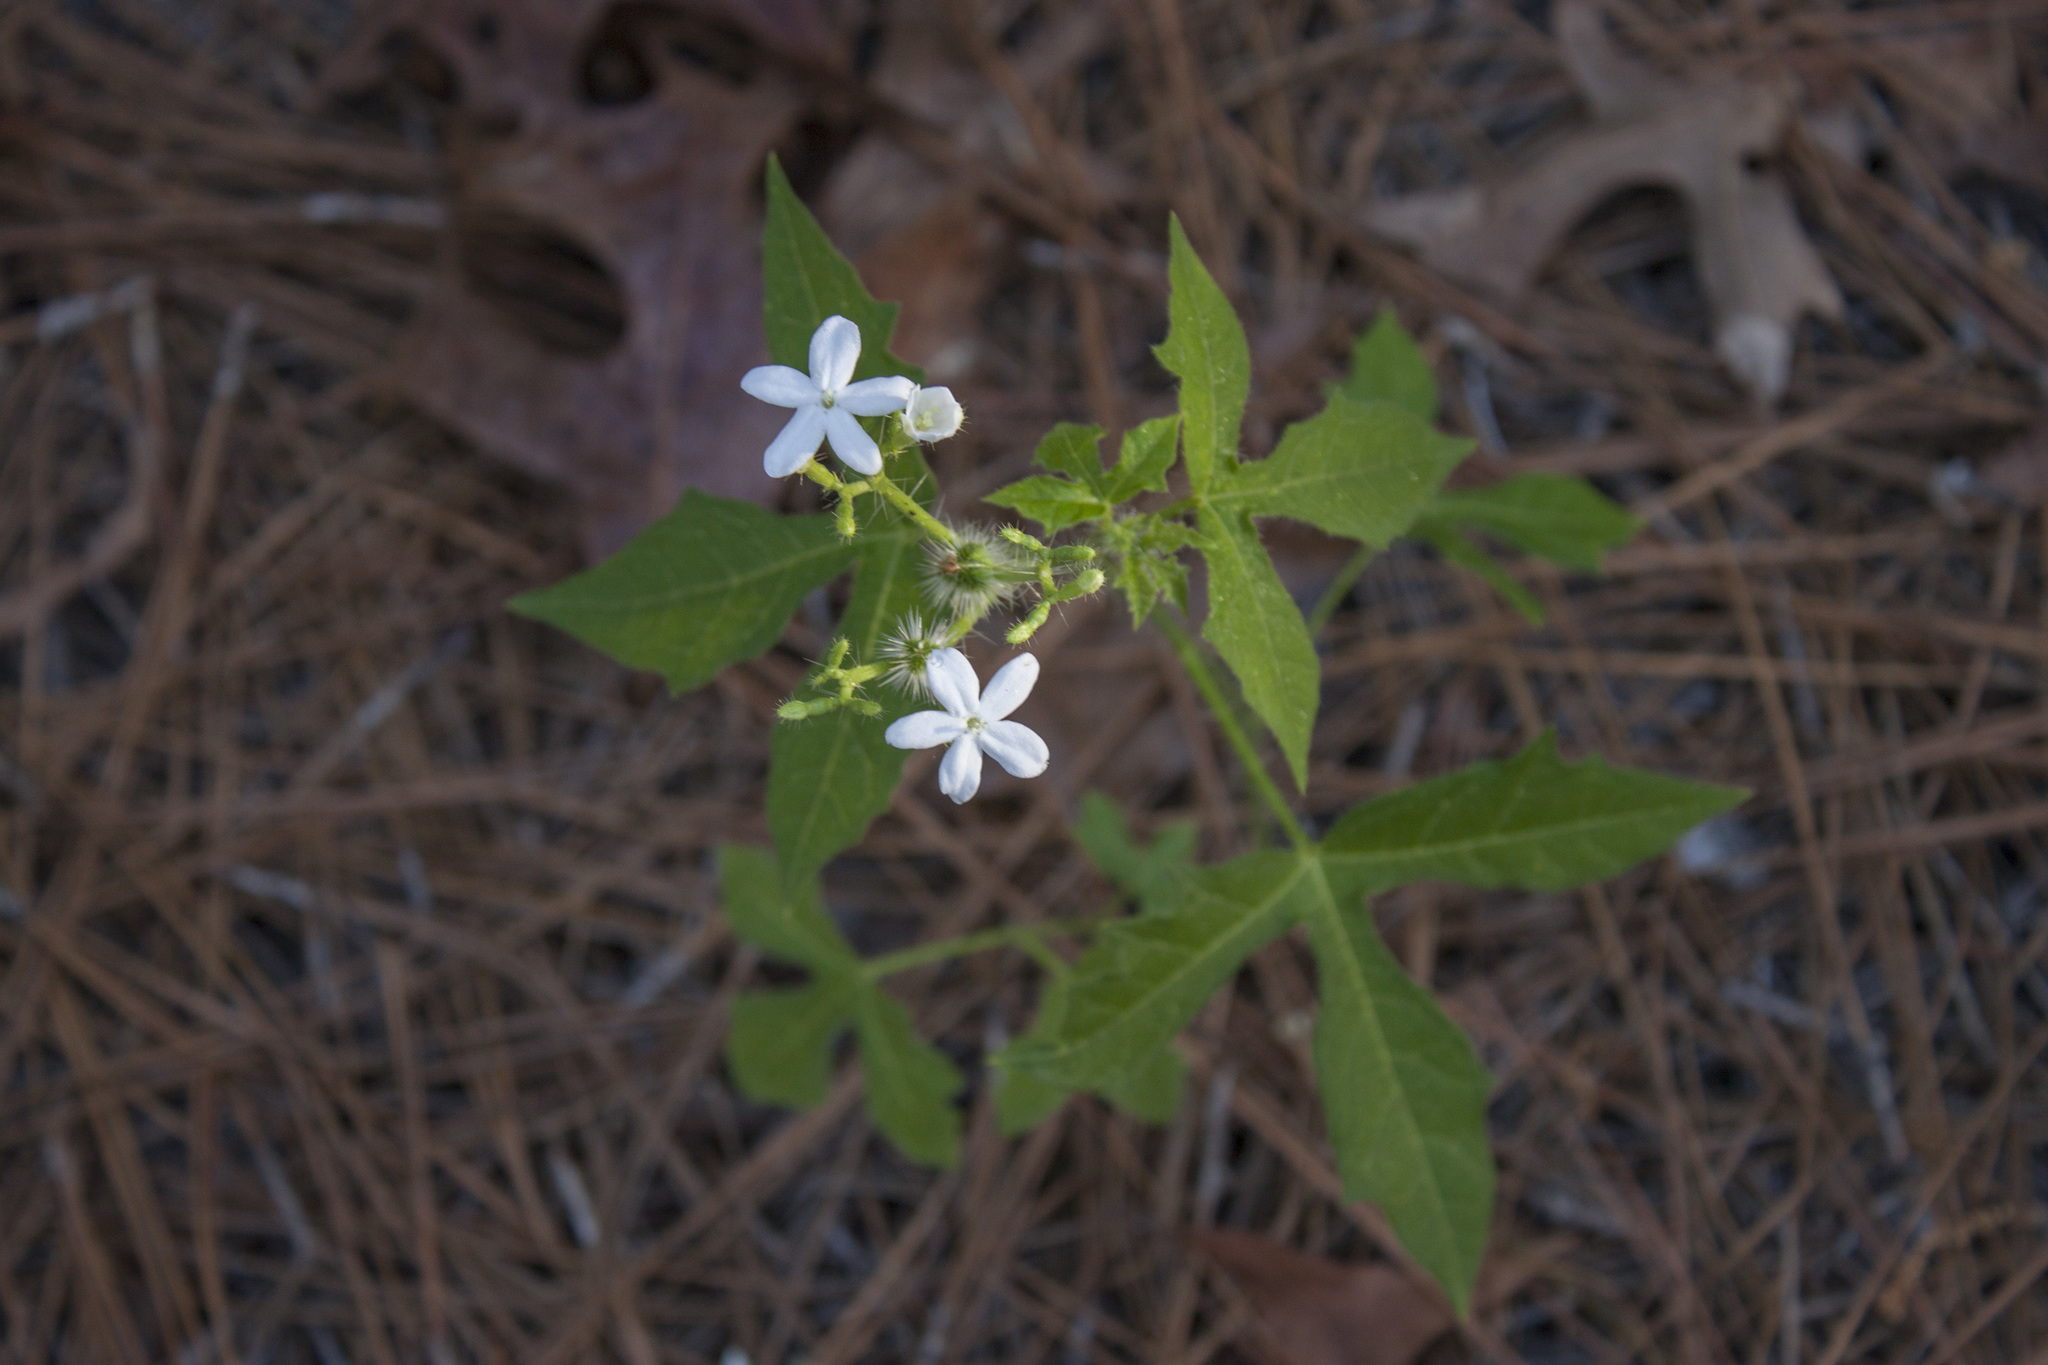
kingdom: Plantae
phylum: Tracheophyta
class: Magnoliopsida
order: Malpighiales
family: Euphorbiaceae
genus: Cnidoscolus
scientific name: Cnidoscolus stimulosus
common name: Bull-nettle
